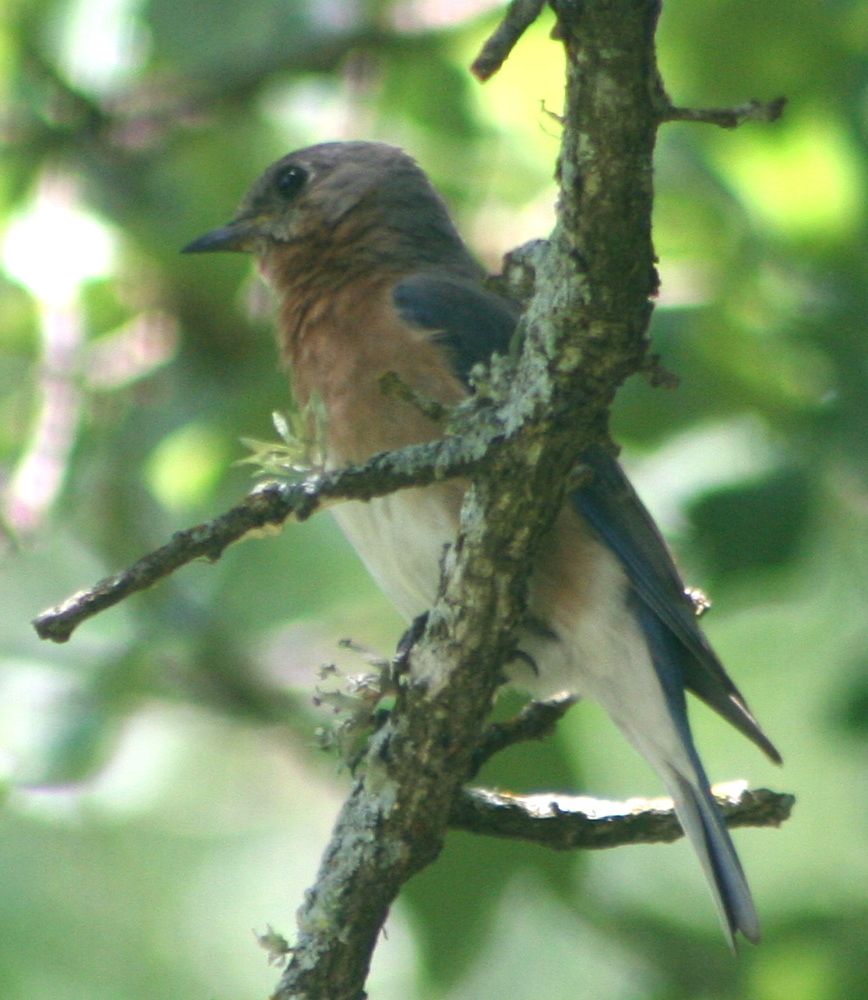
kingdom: Animalia
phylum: Chordata
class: Aves
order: Passeriformes
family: Turdidae
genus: Sialia
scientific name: Sialia sialis
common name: Eastern bluebird
